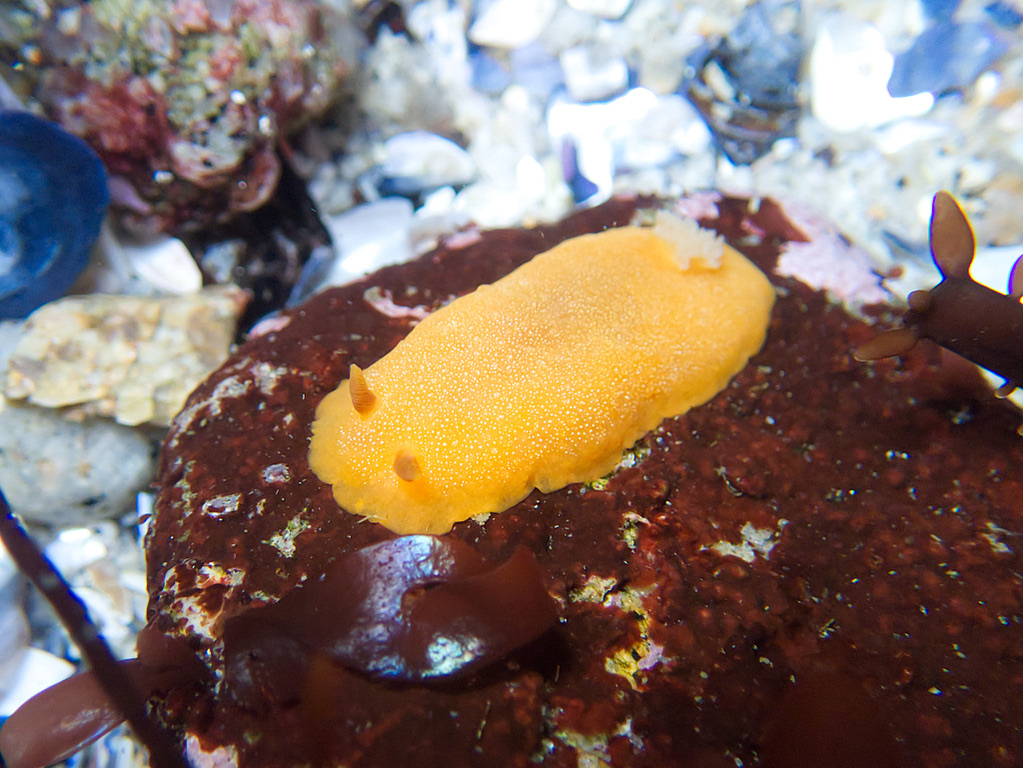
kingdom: Animalia
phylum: Mollusca
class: Gastropoda
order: Nudibranchia
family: Dendrodorididae
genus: Doriopsilla
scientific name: Doriopsilla albopunctata
